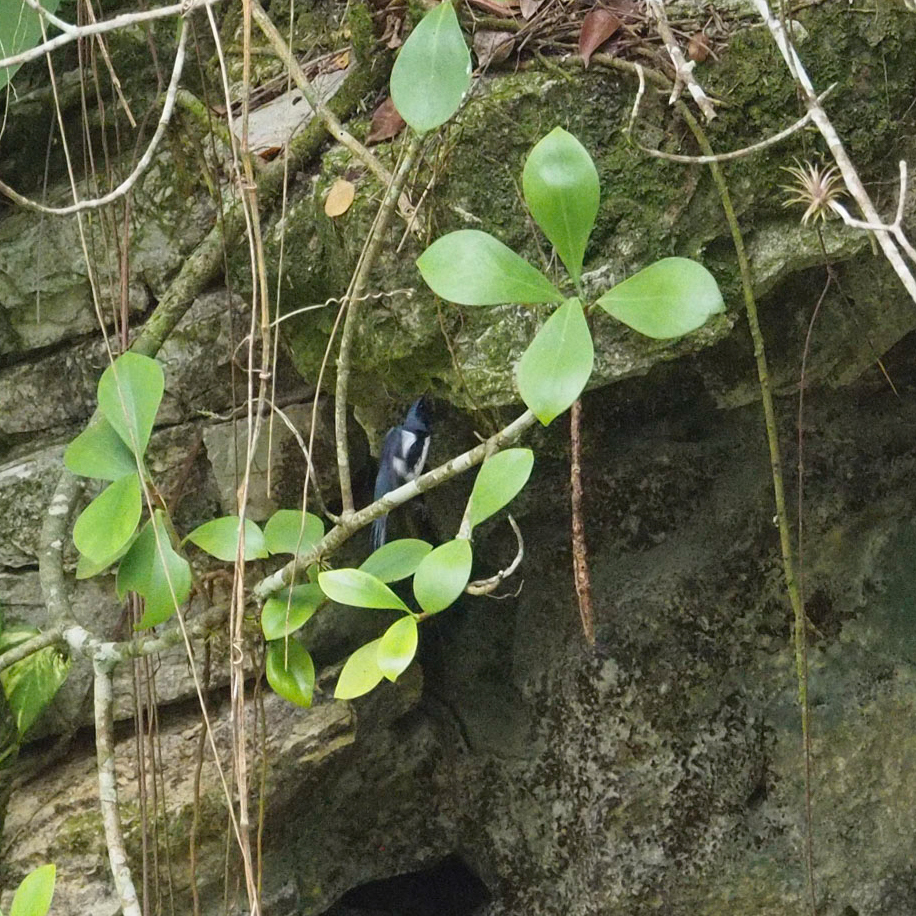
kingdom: Animalia
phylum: Chordata
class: Aves
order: Passeriformes
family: Parulidae
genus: Setophaga
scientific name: Setophaga caerulescens
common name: Black-throated blue warbler
